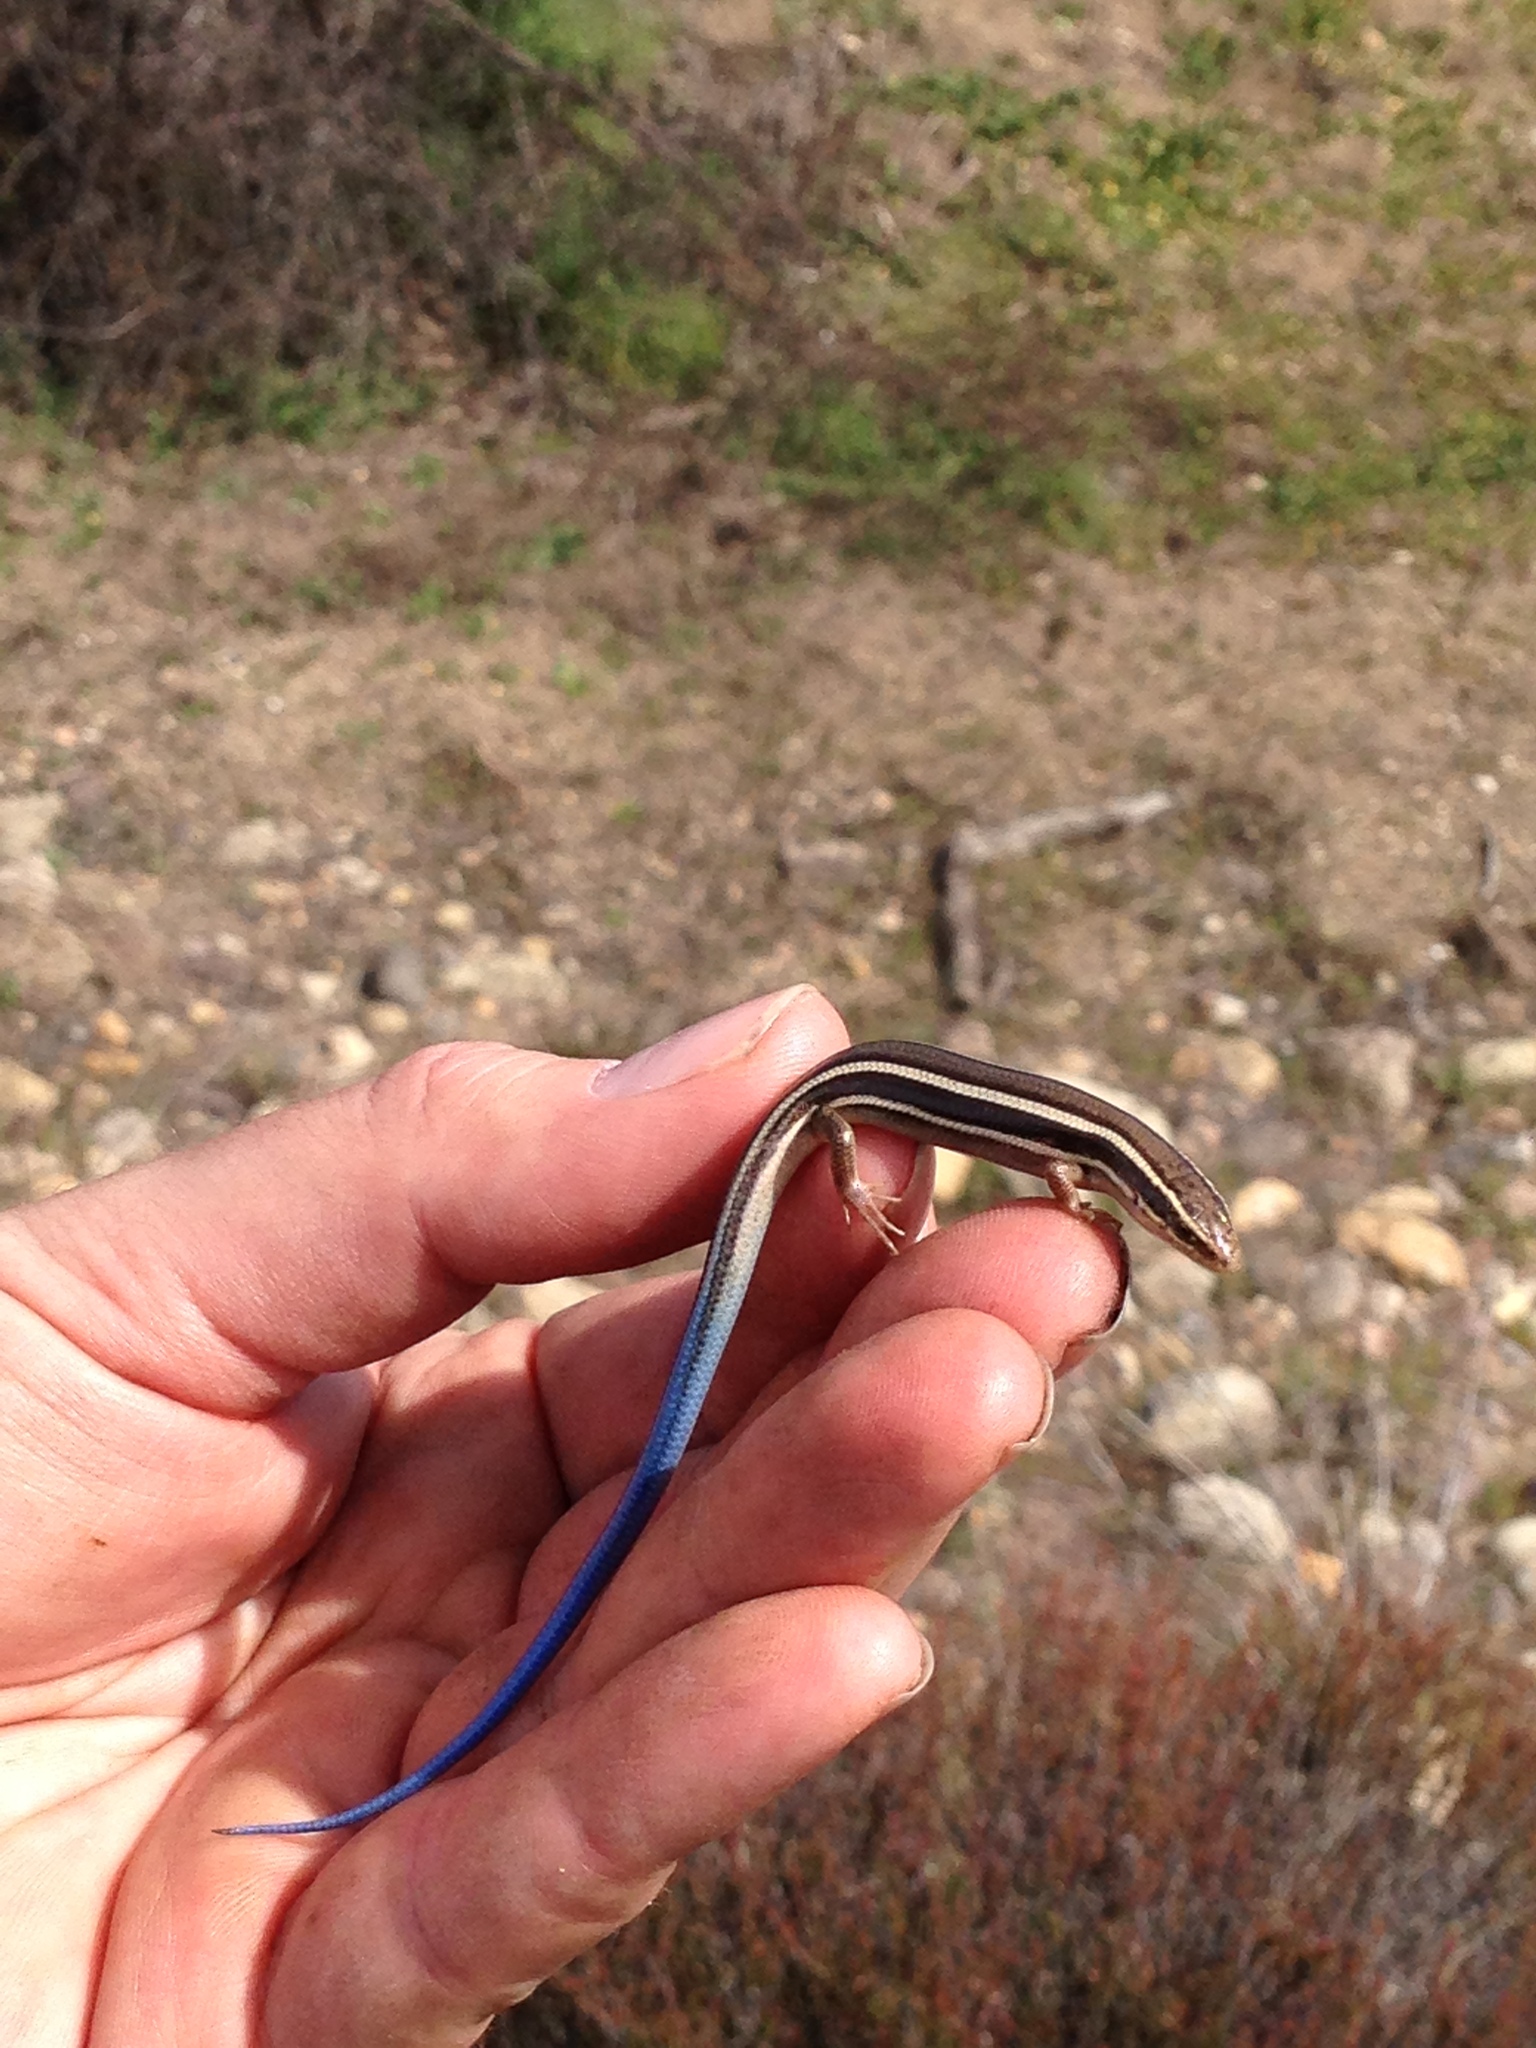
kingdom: Animalia
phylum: Chordata
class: Squamata
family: Scincidae
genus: Plestiodon
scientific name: Plestiodon skiltonianus
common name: Coronado island skink [interparietalis]
